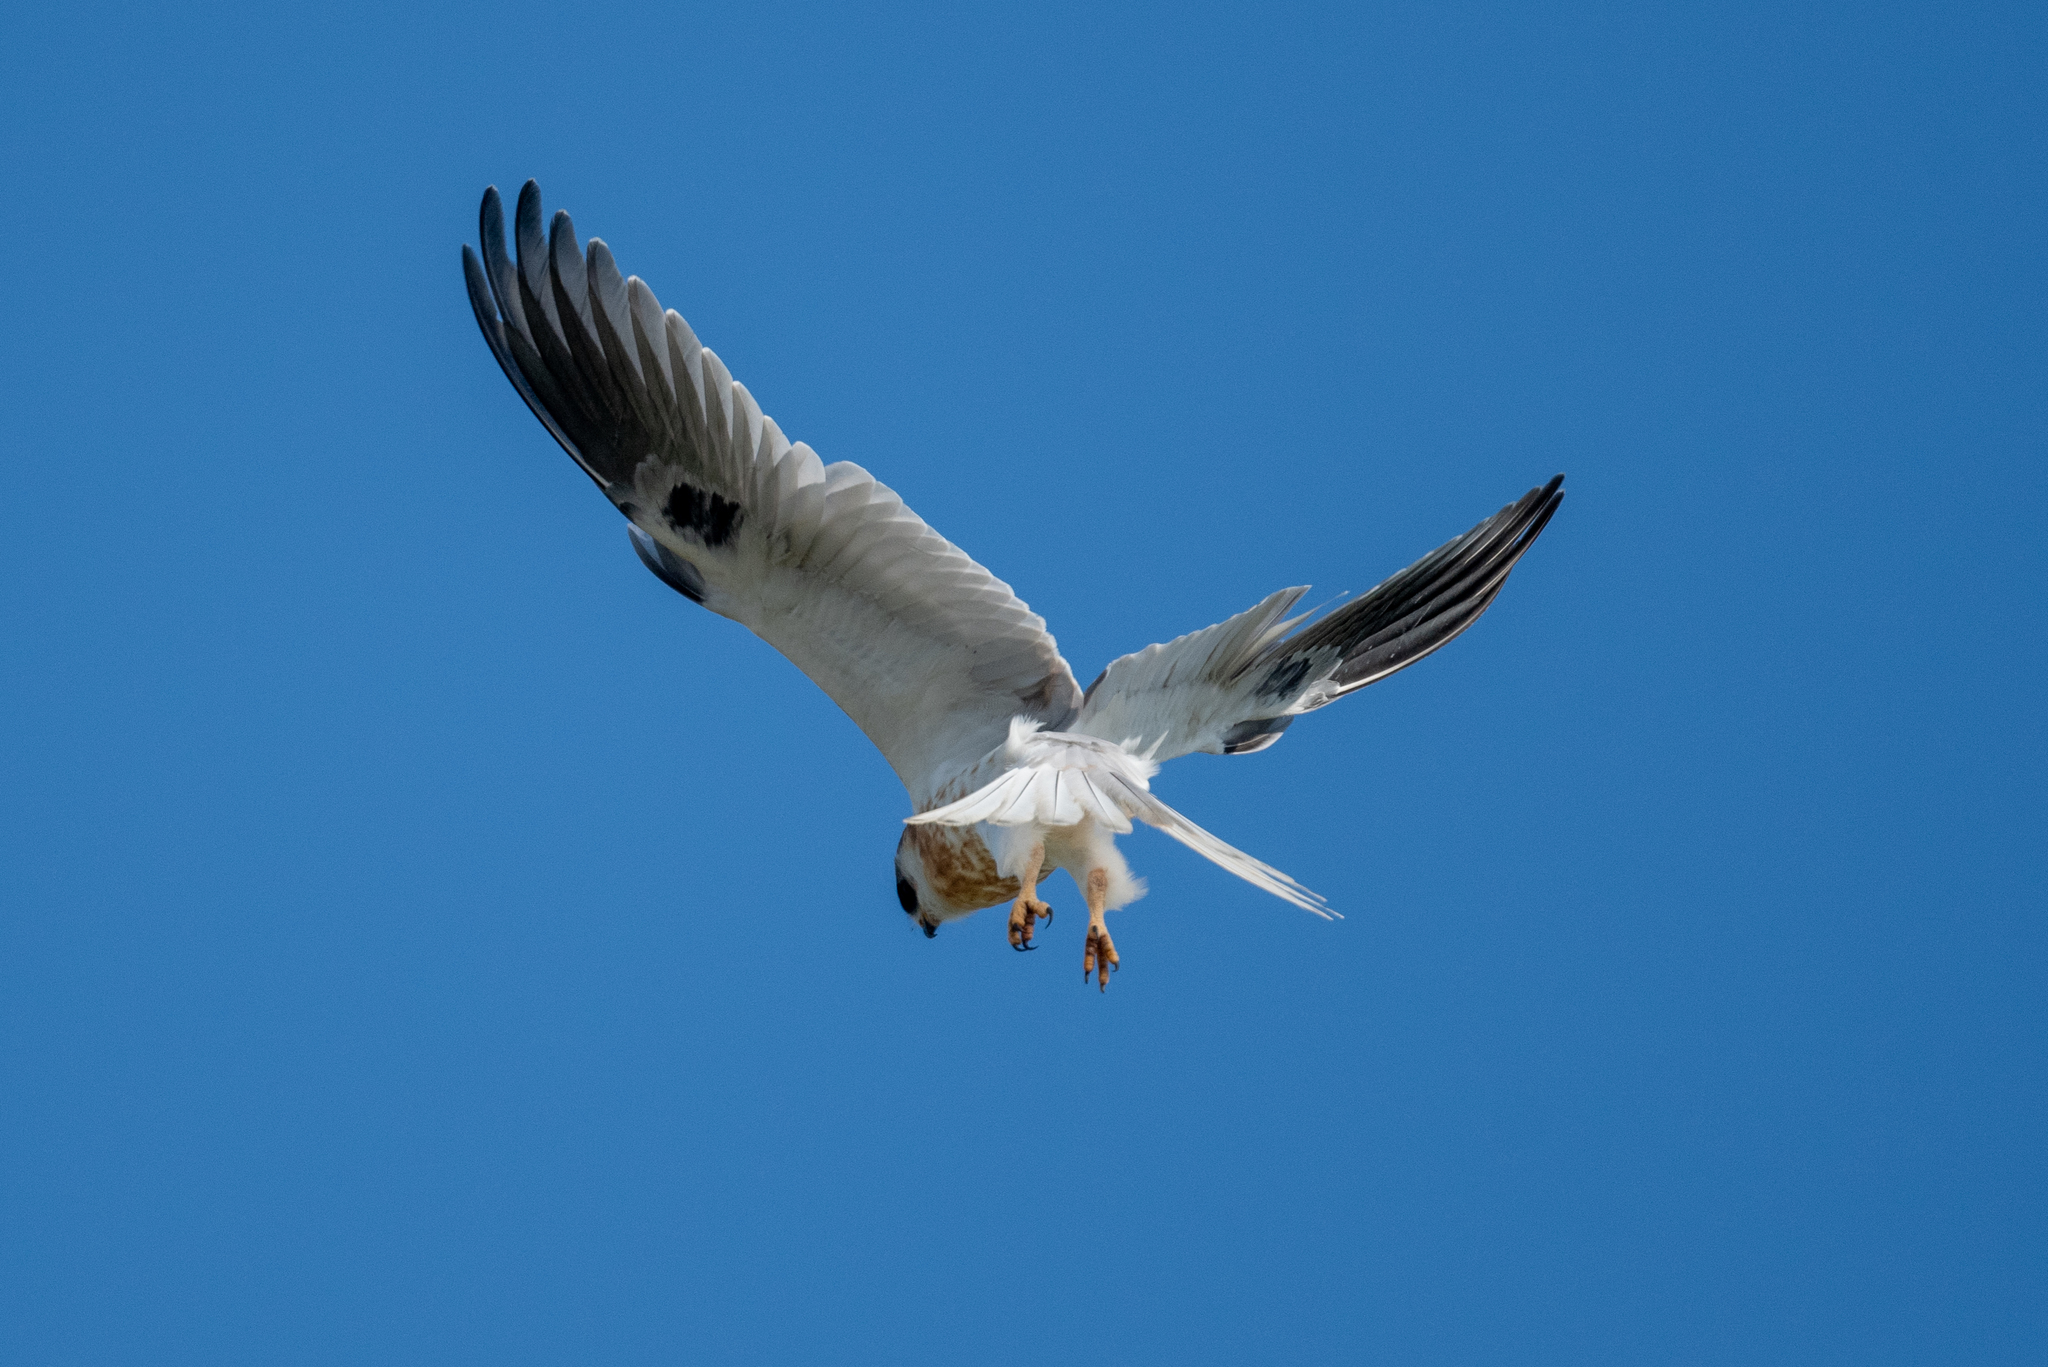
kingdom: Animalia
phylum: Chordata
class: Aves
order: Accipitriformes
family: Accipitridae
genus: Elanus
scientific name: Elanus leucurus
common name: White-tailed kite
